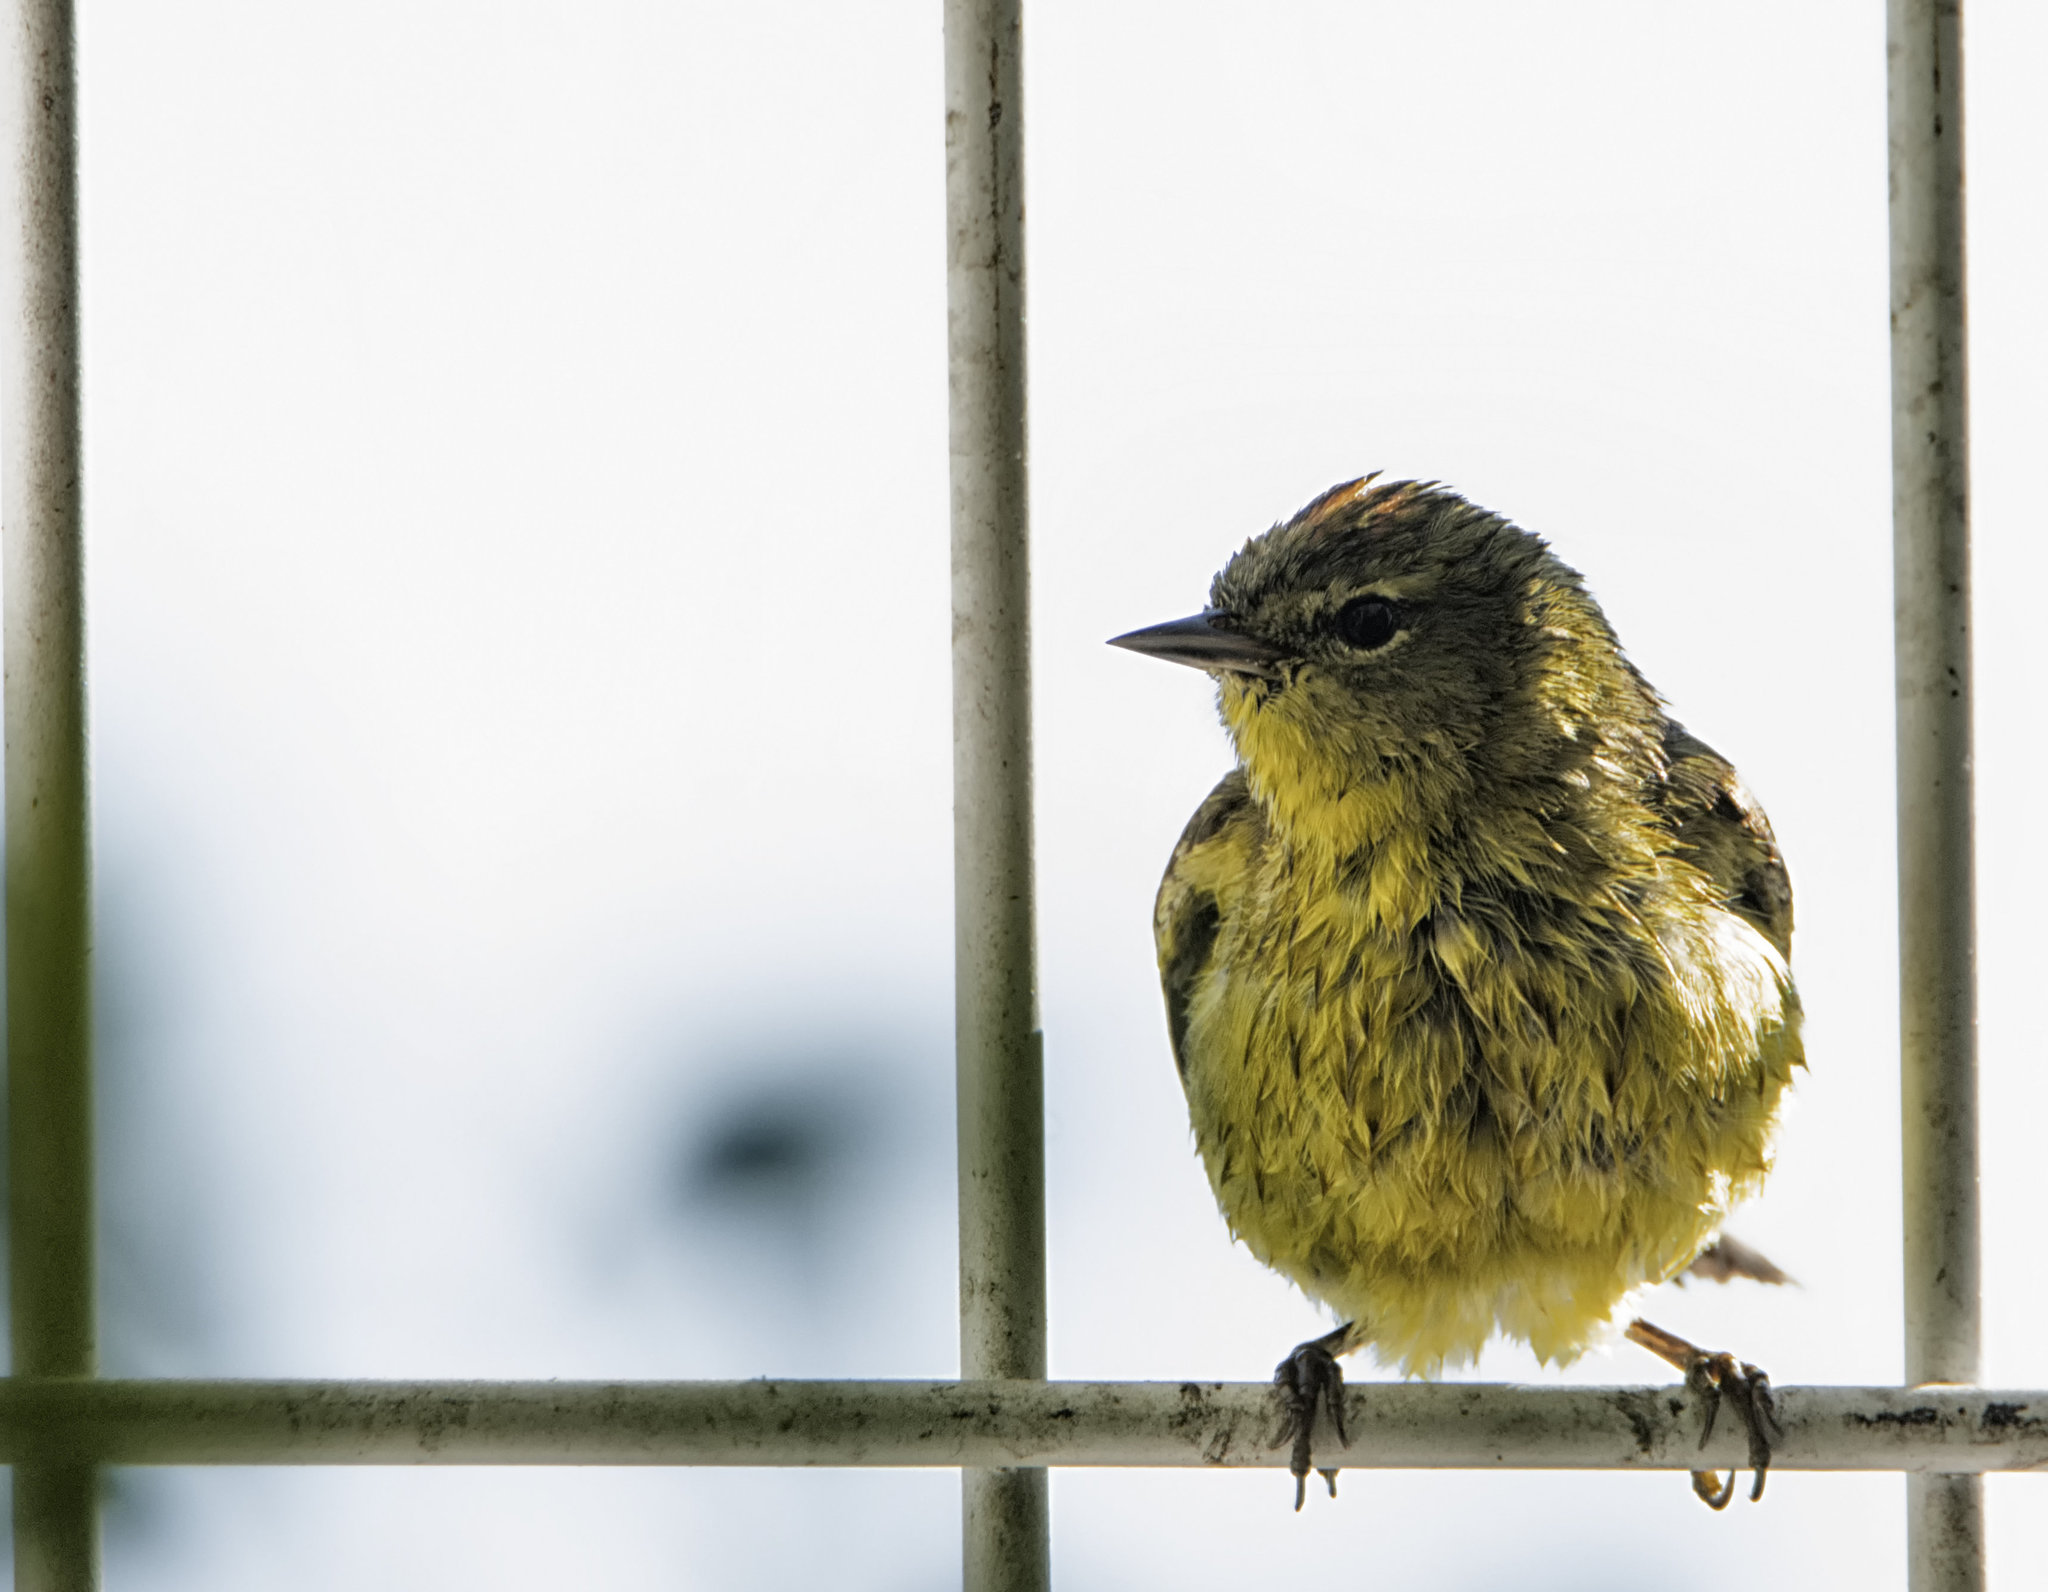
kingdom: Animalia
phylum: Chordata
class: Aves
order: Passeriformes
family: Parulidae
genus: Leiothlypis
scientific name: Leiothlypis celata
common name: Orange-crowned warbler
